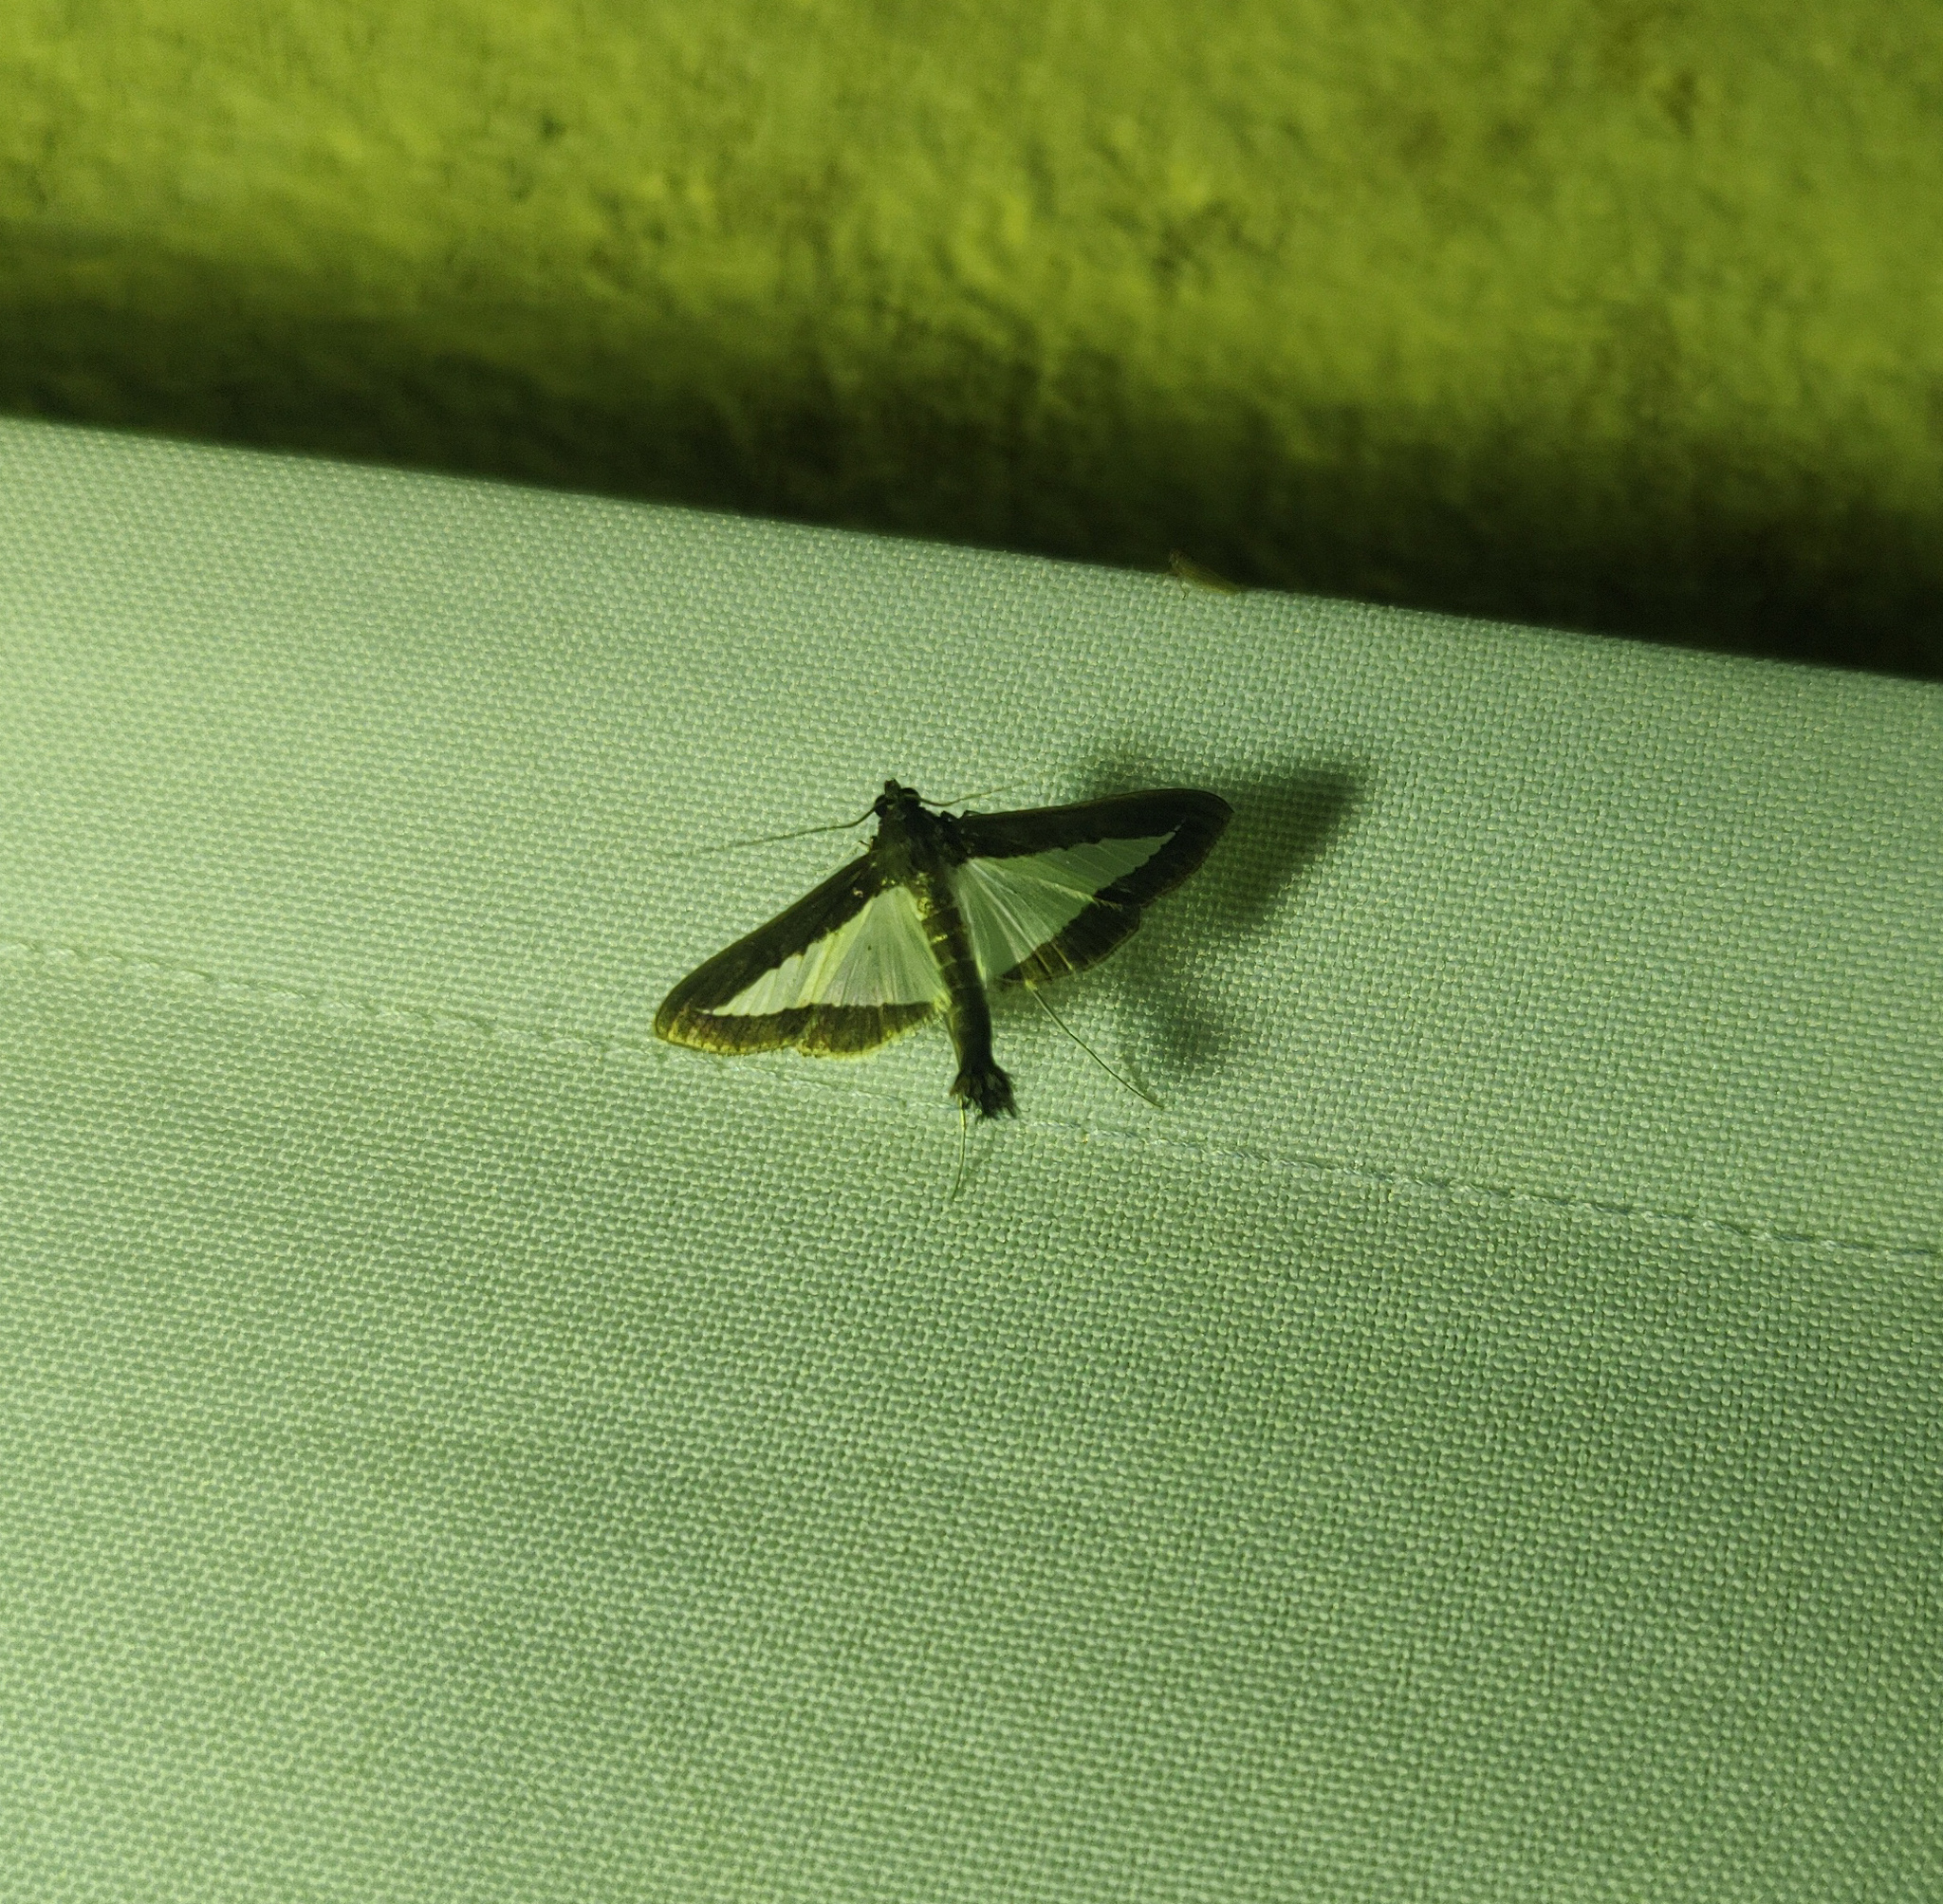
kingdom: Animalia
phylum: Arthropoda
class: Insecta
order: Lepidoptera
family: Crambidae
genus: Diaphania
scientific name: Diaphania elegans
